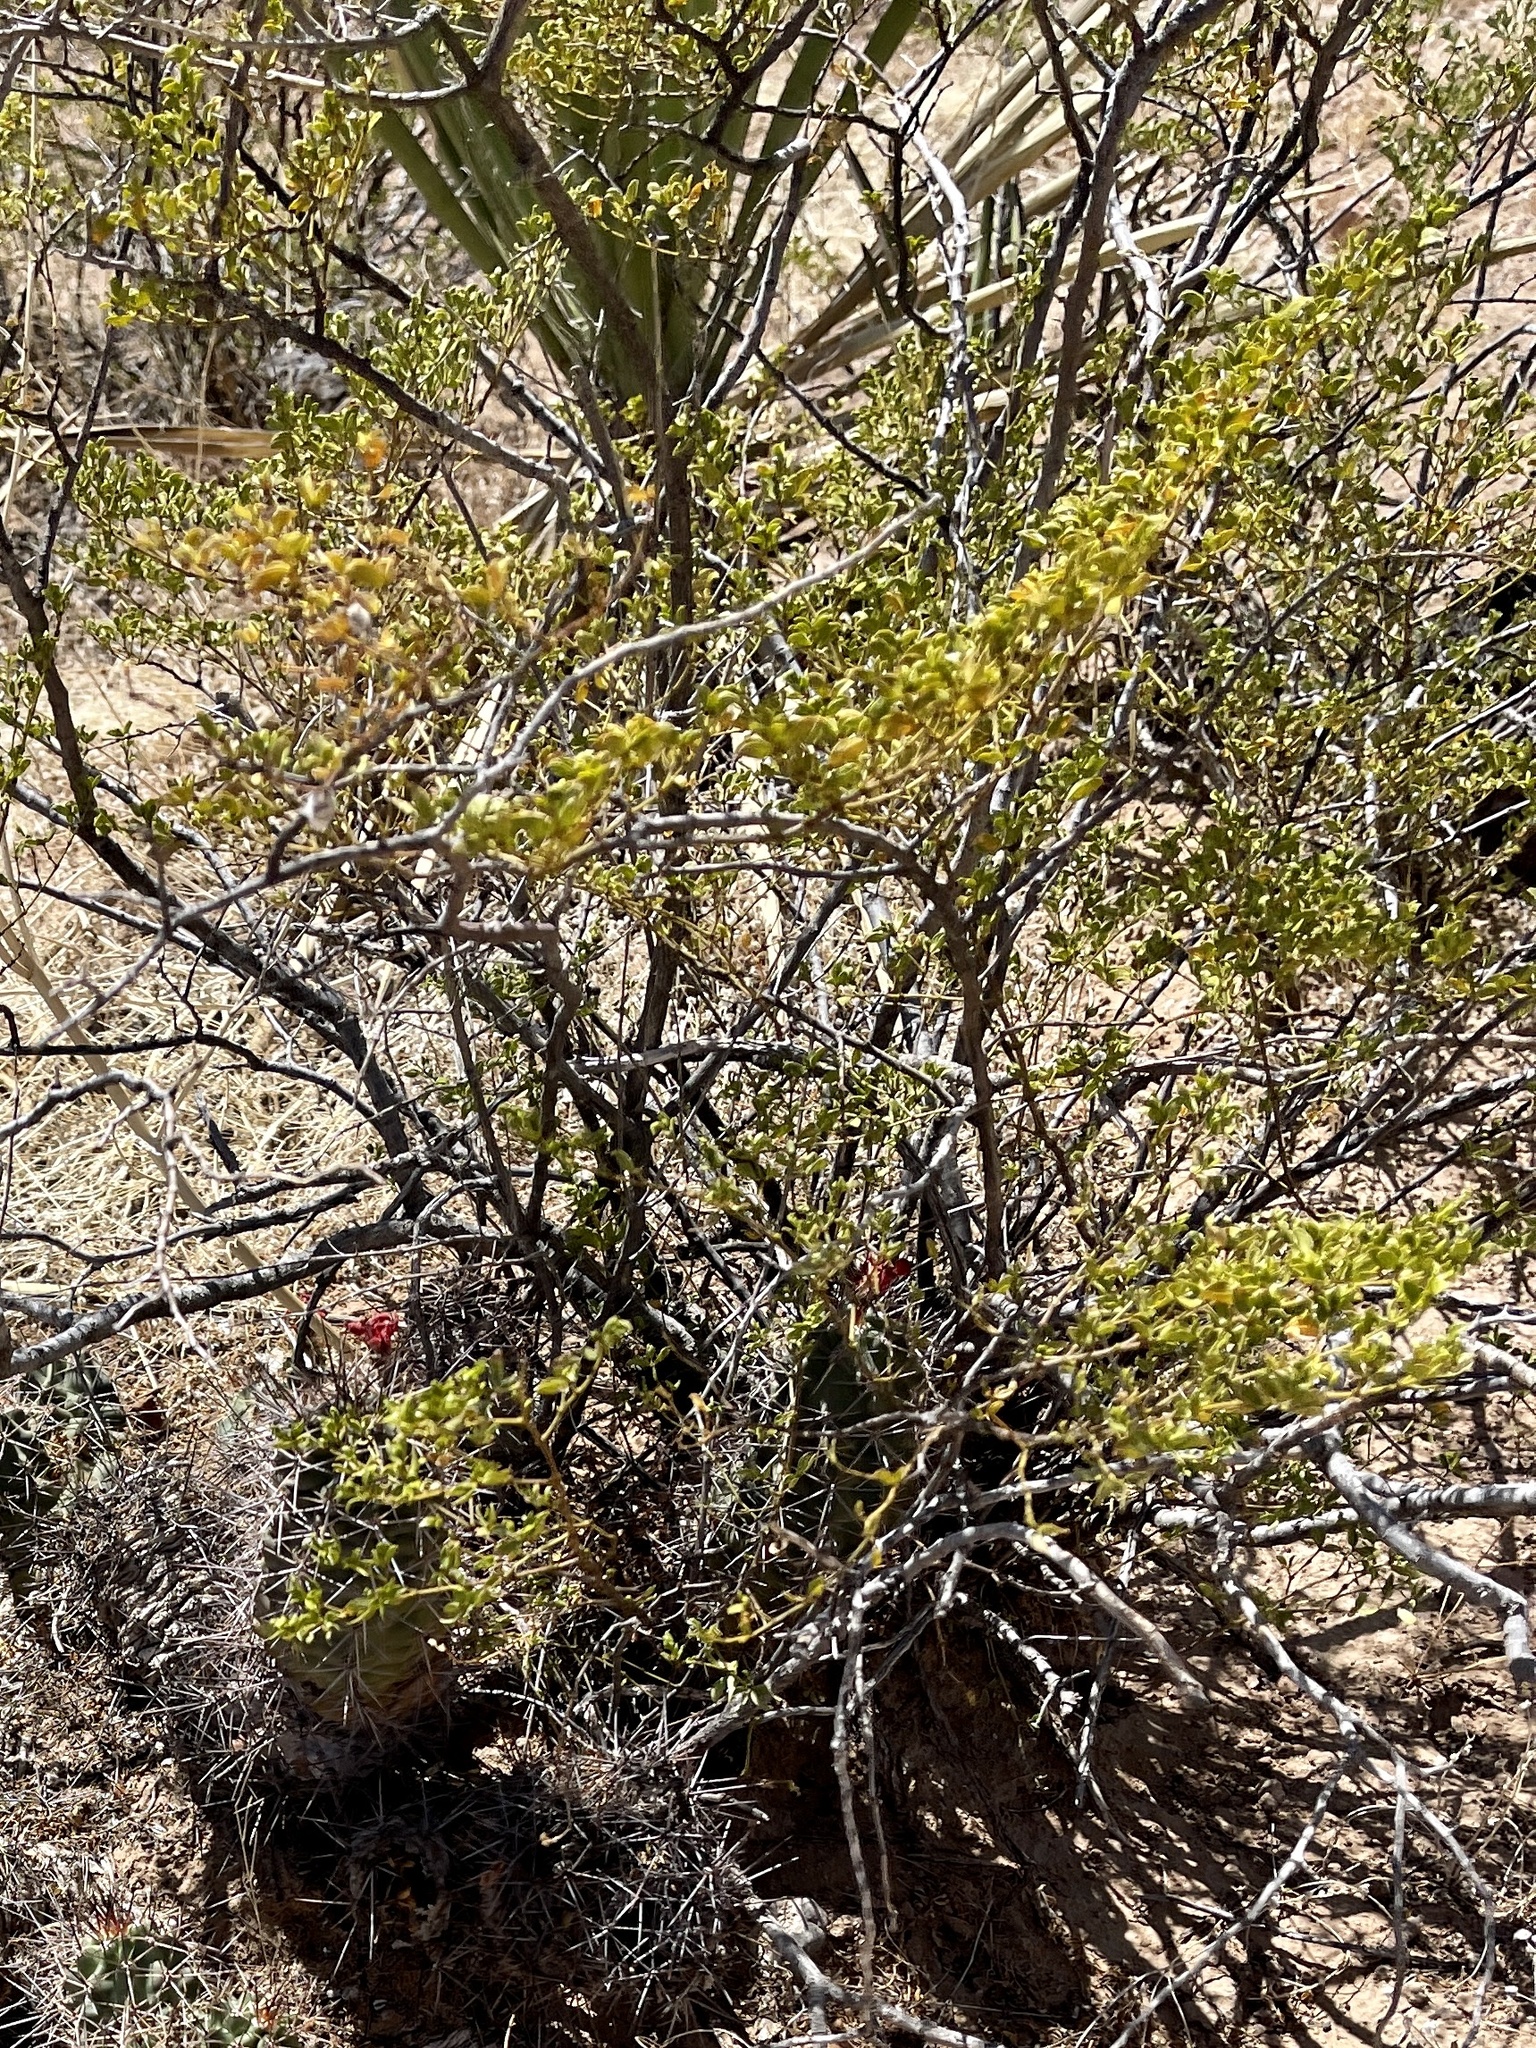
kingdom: Plantae
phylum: Tracheophyta
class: Magnoliopsida
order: Zygophyllales
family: Zygophyllaceae
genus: Larrea
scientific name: Larrea tridentata
